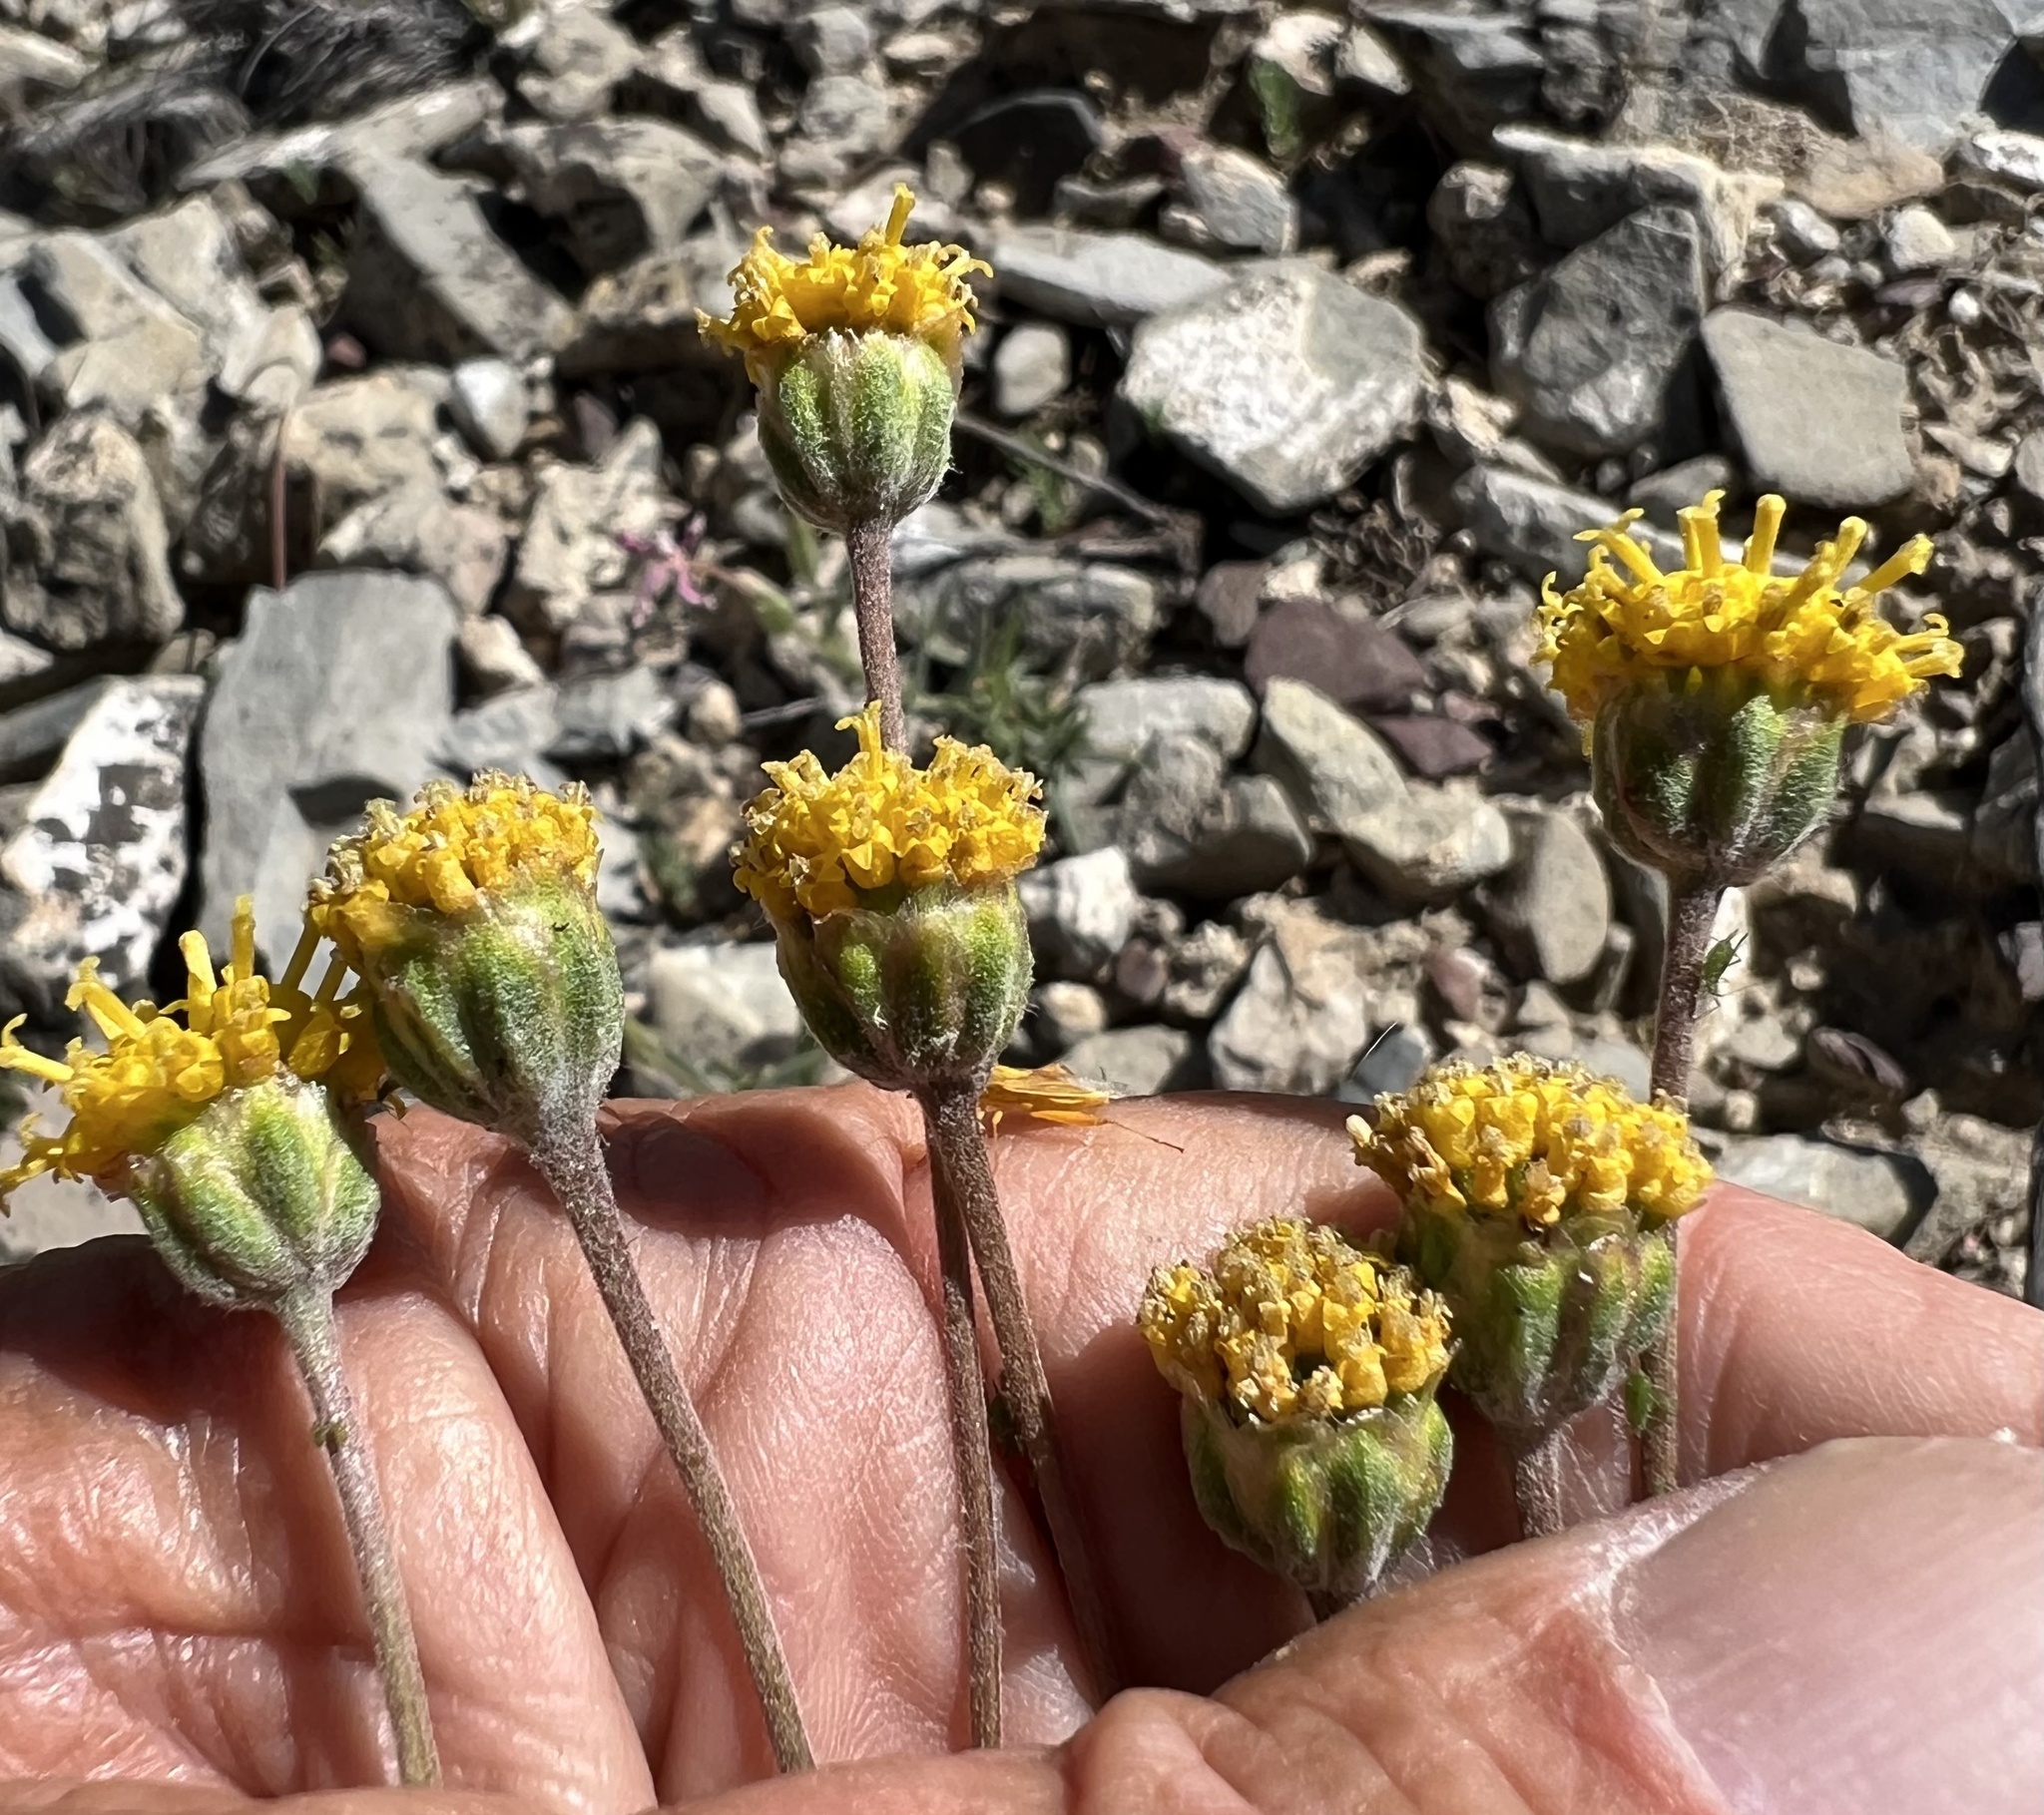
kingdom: Plantae
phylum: Tracheophyta
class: Magnoliopsida
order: Asterales
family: Asteraceae
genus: Hymenopappus
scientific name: Hymenopappus filifolius
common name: Columbia cutleaf
